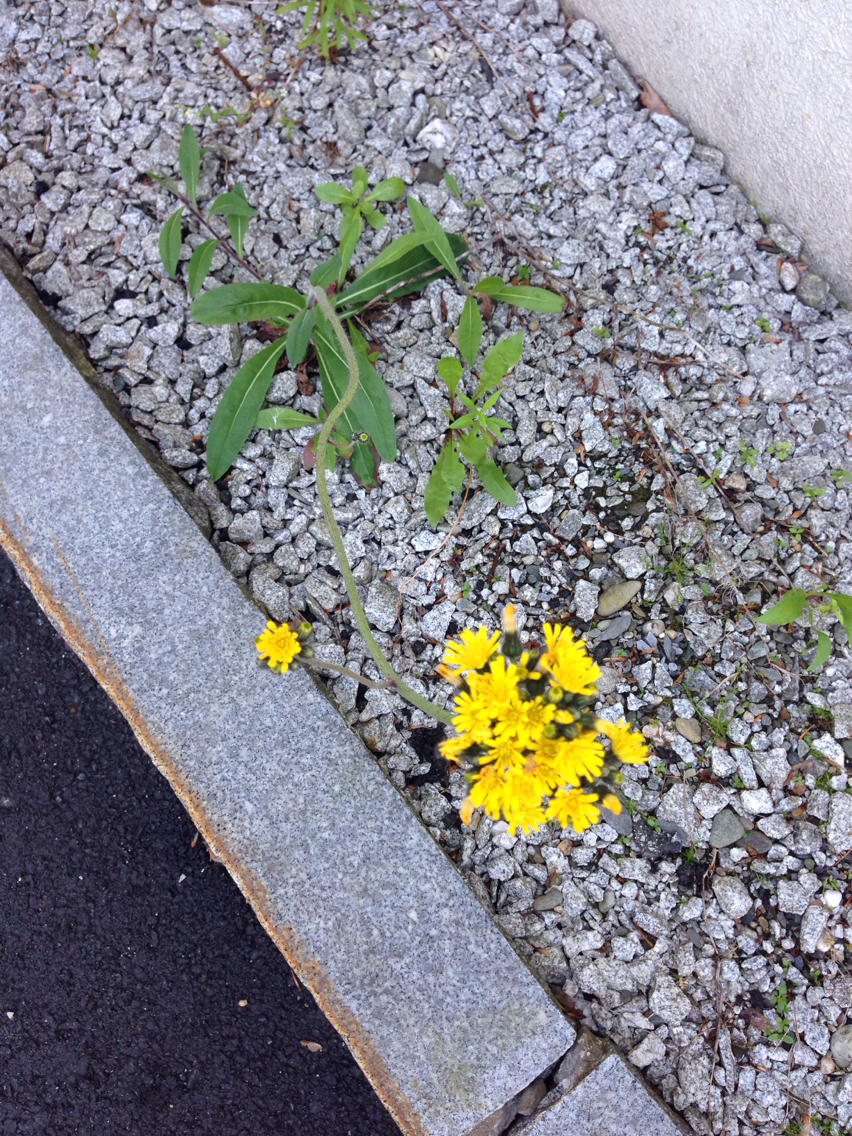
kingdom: Plantae
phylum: Tracheophyta
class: Magnoliopsida
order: Asterales
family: Asteraceae
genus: Pilosella
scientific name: Pilosella caespitosa
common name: Yellow fox-and-cubs
